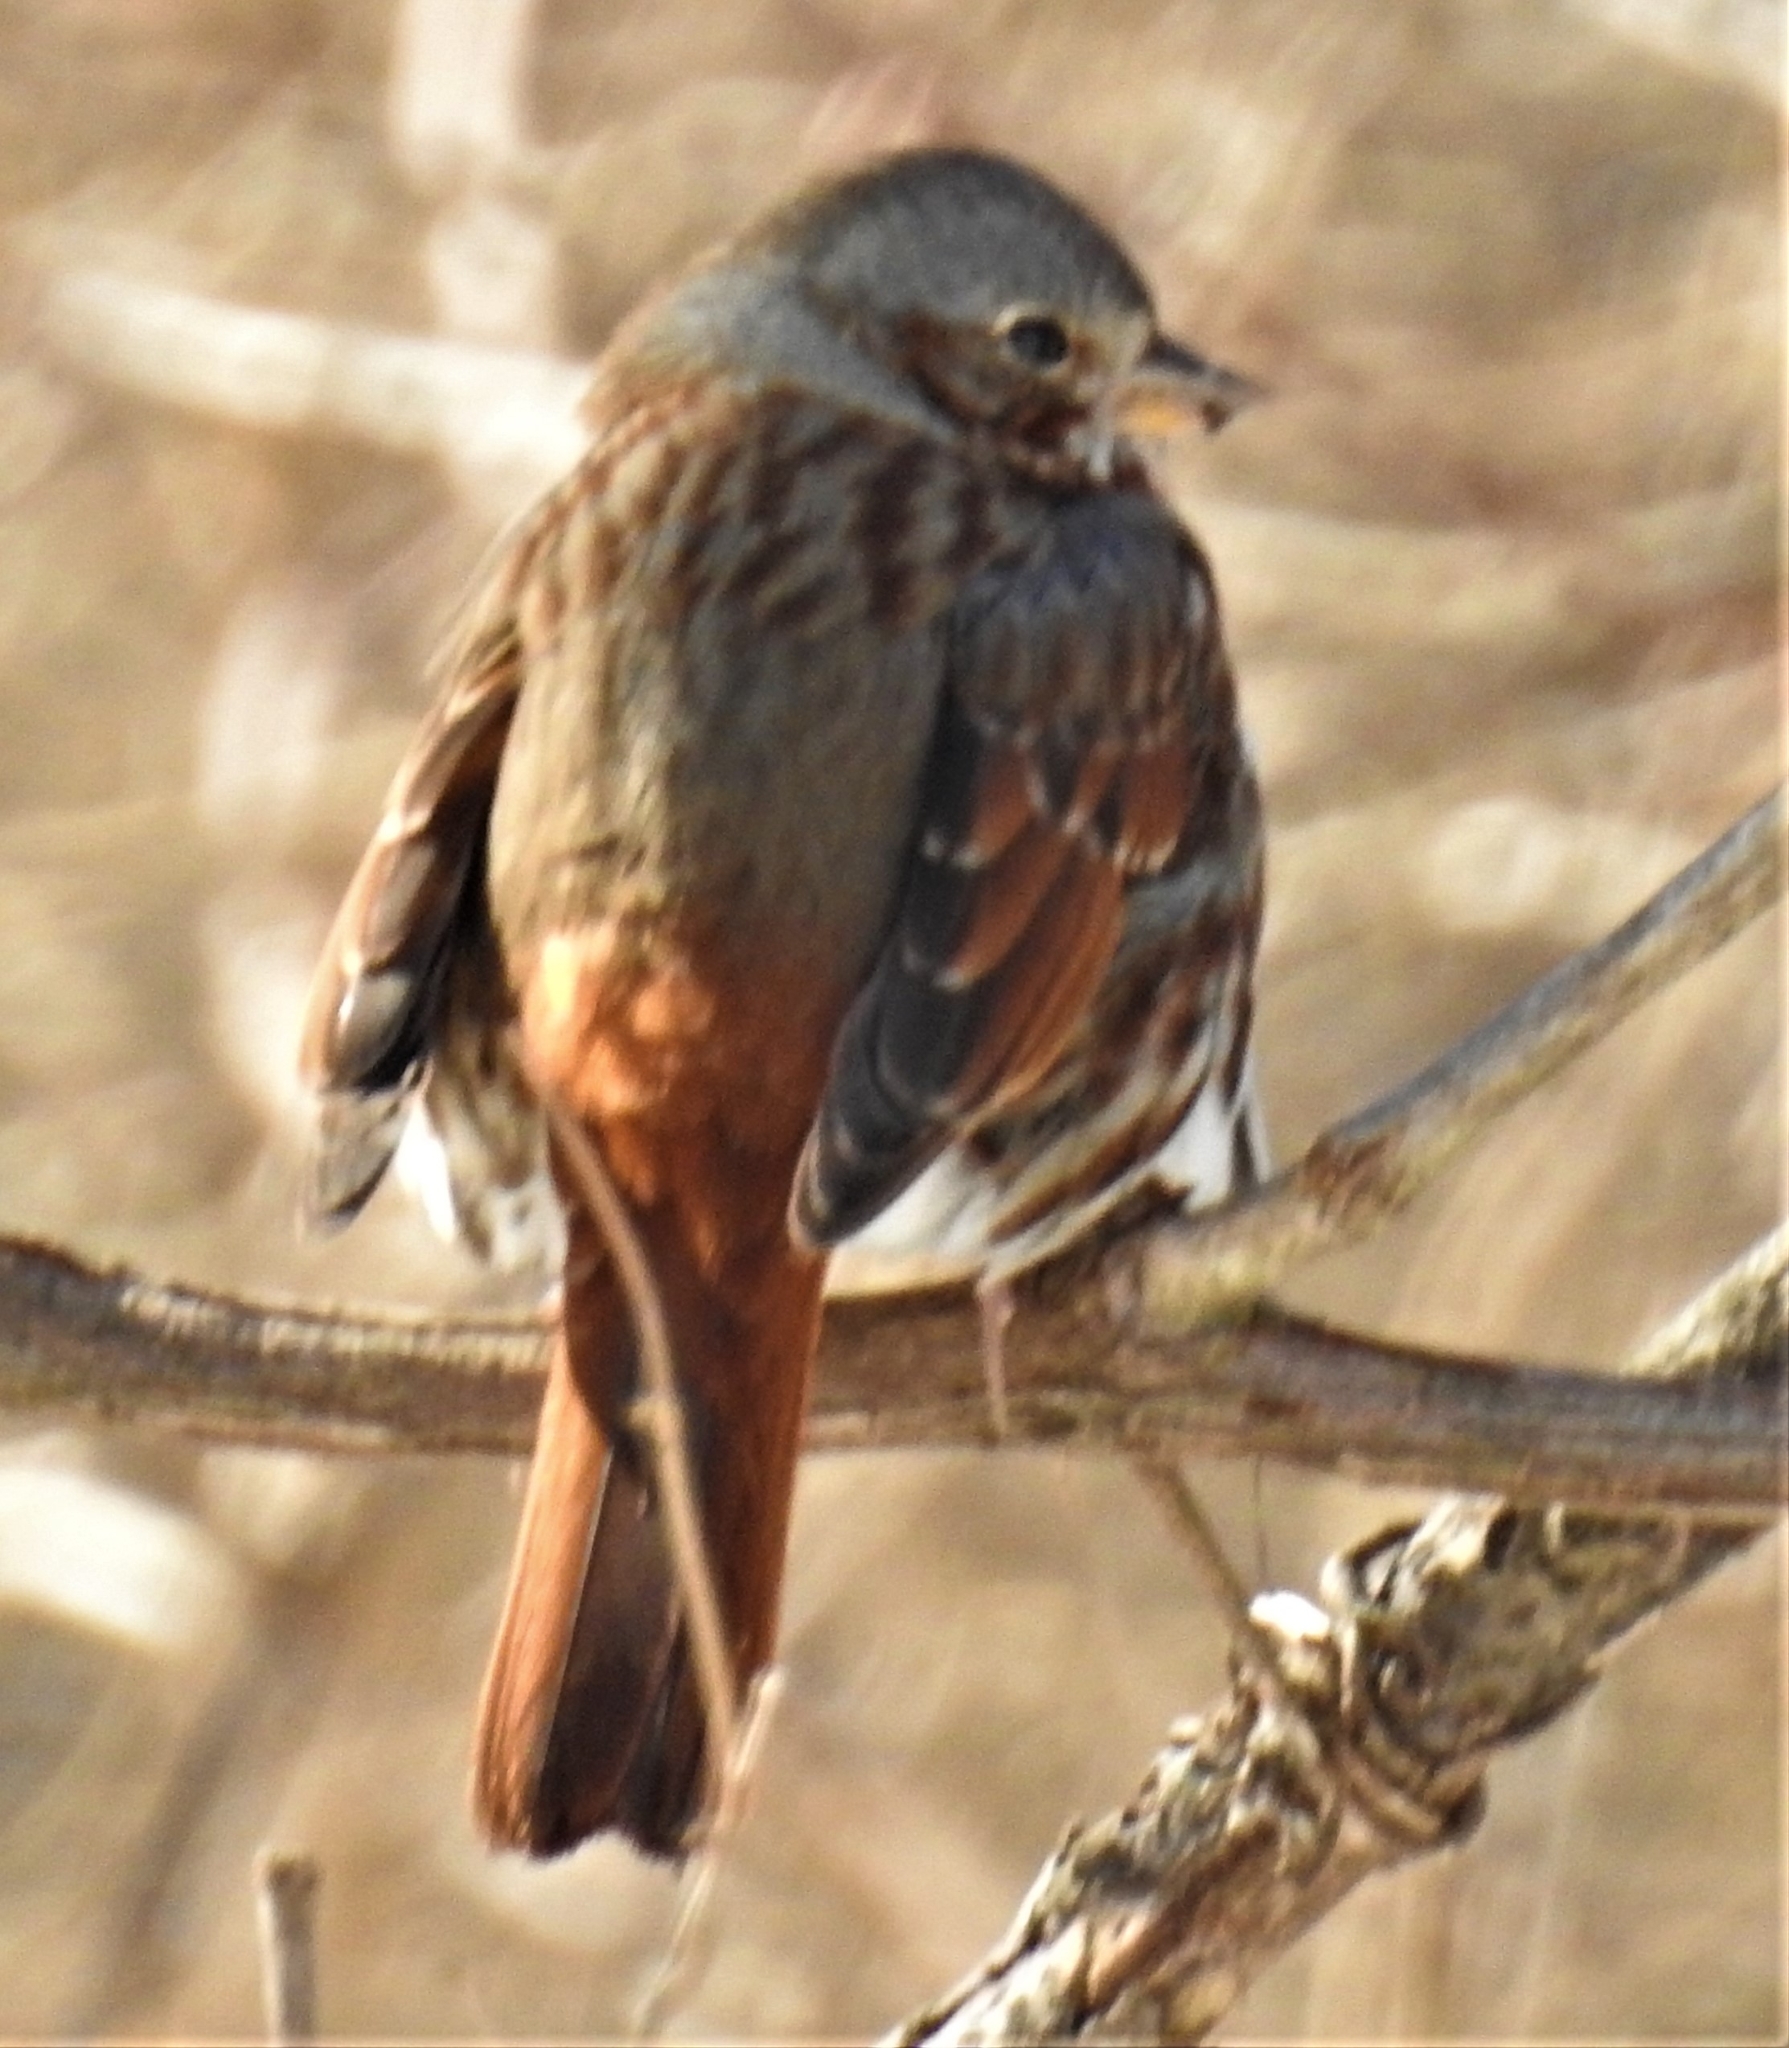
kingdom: Animalia
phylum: Chordata
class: Aves
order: Passeriformes
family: Passerellidae
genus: Passerella
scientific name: Passerella iliaca
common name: Fox sparrow
